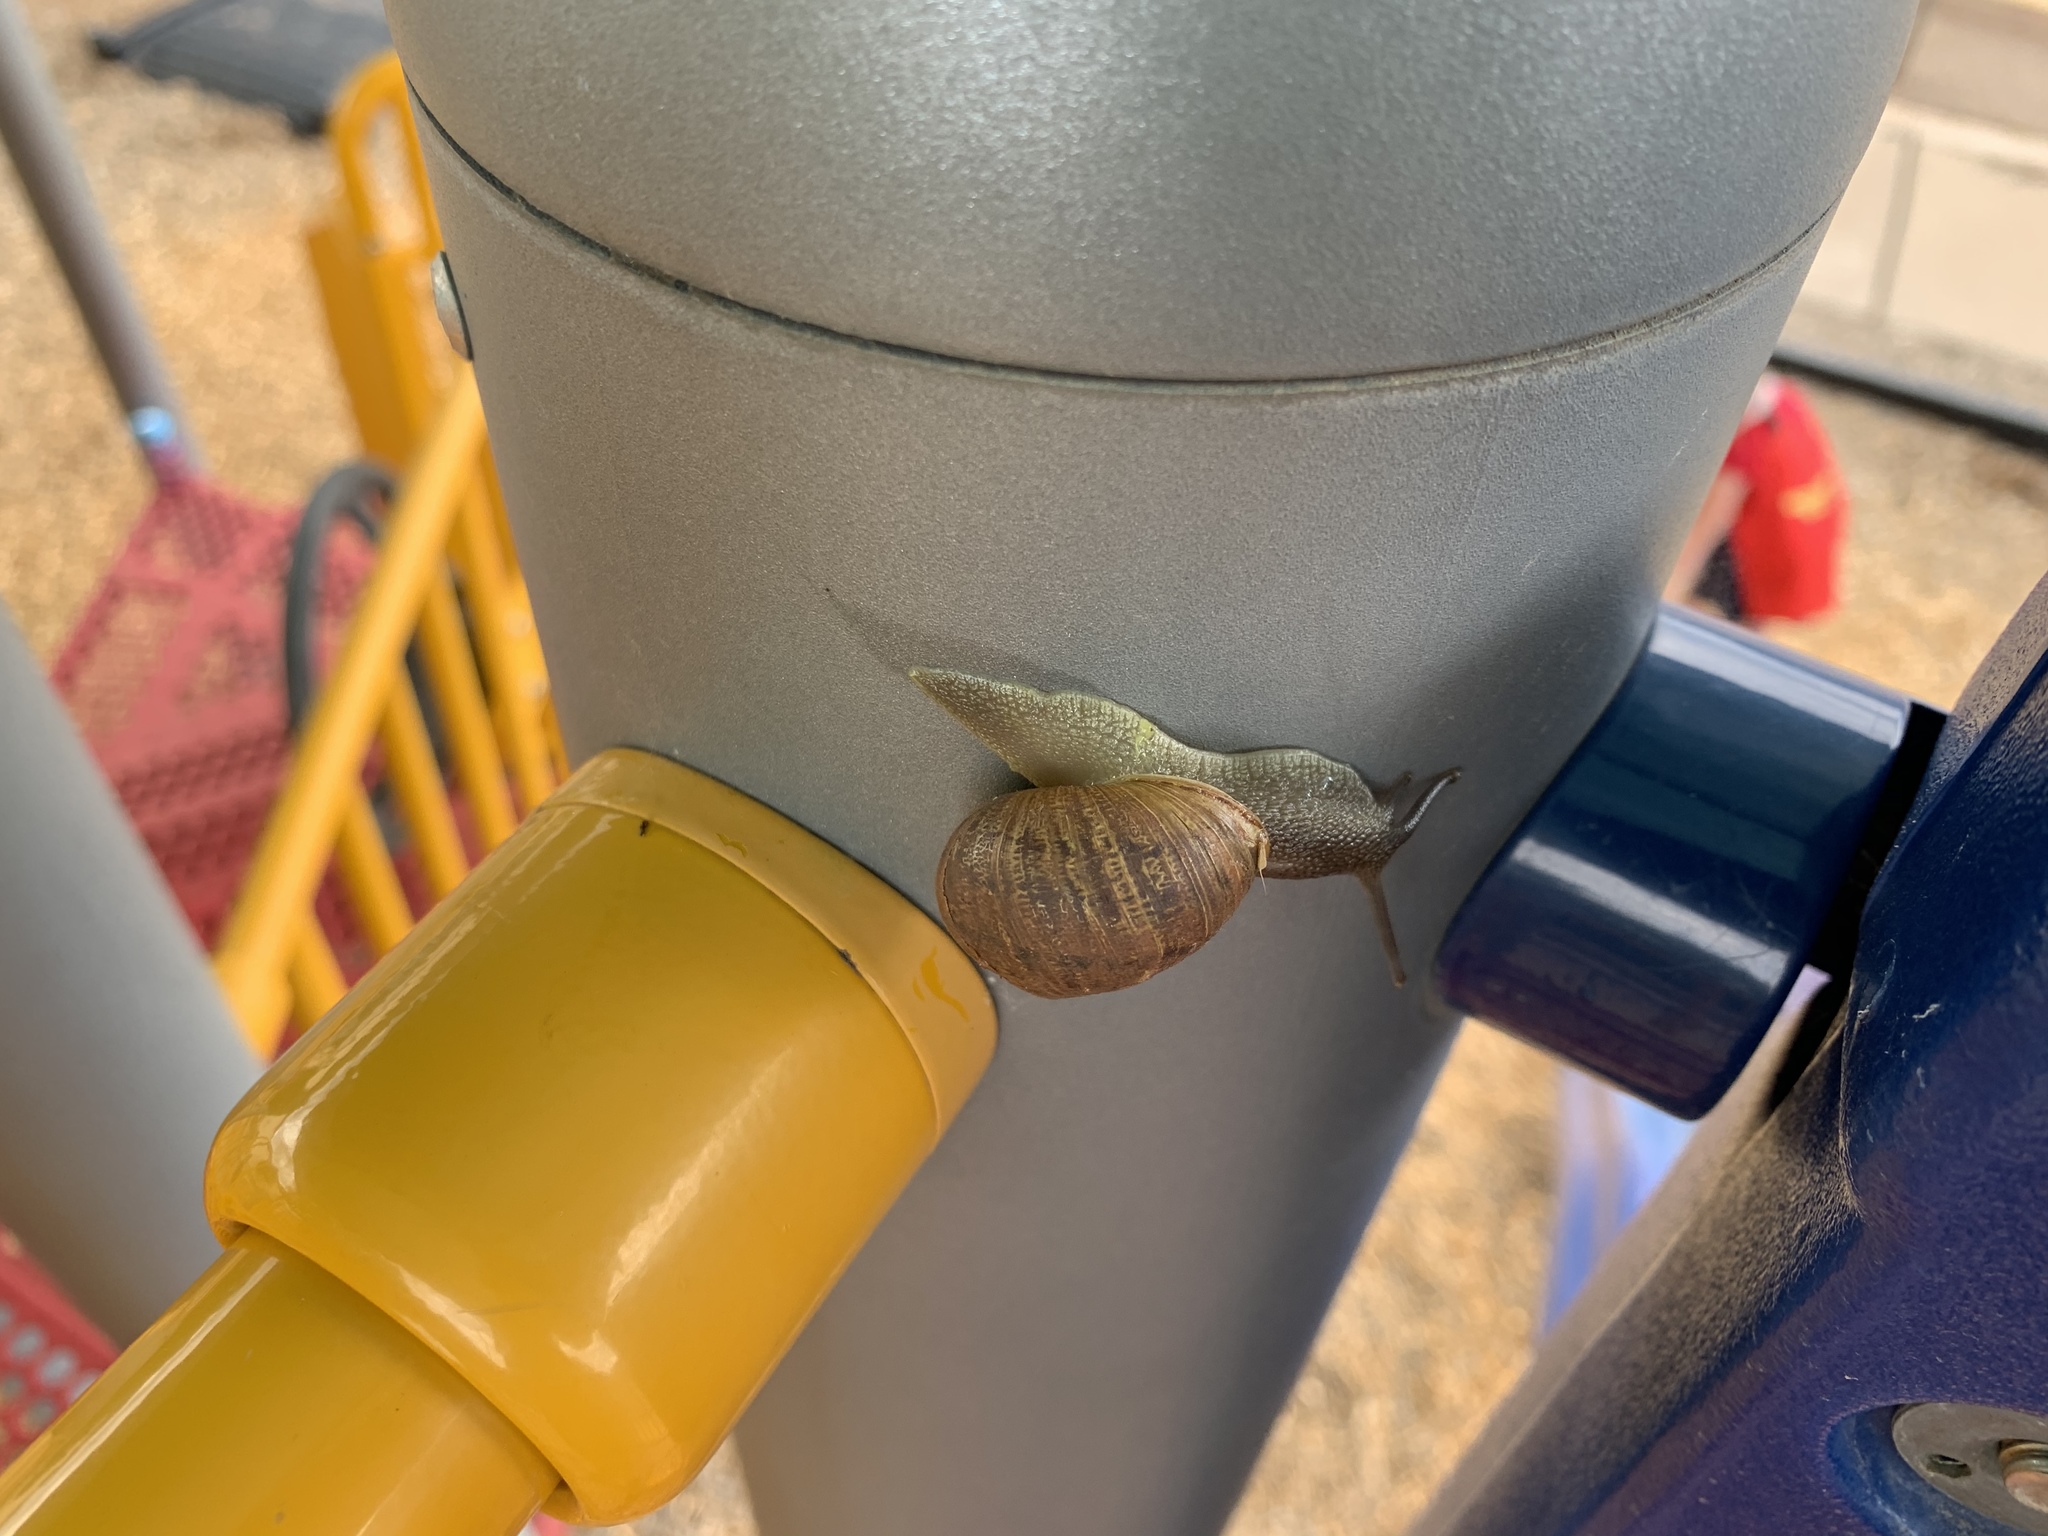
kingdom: Animalia
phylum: Mollusca
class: Gastropoda
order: Stylommatophora
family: Helicidae
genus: Cornu
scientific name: Cornu aspersum
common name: Brown garden snail
